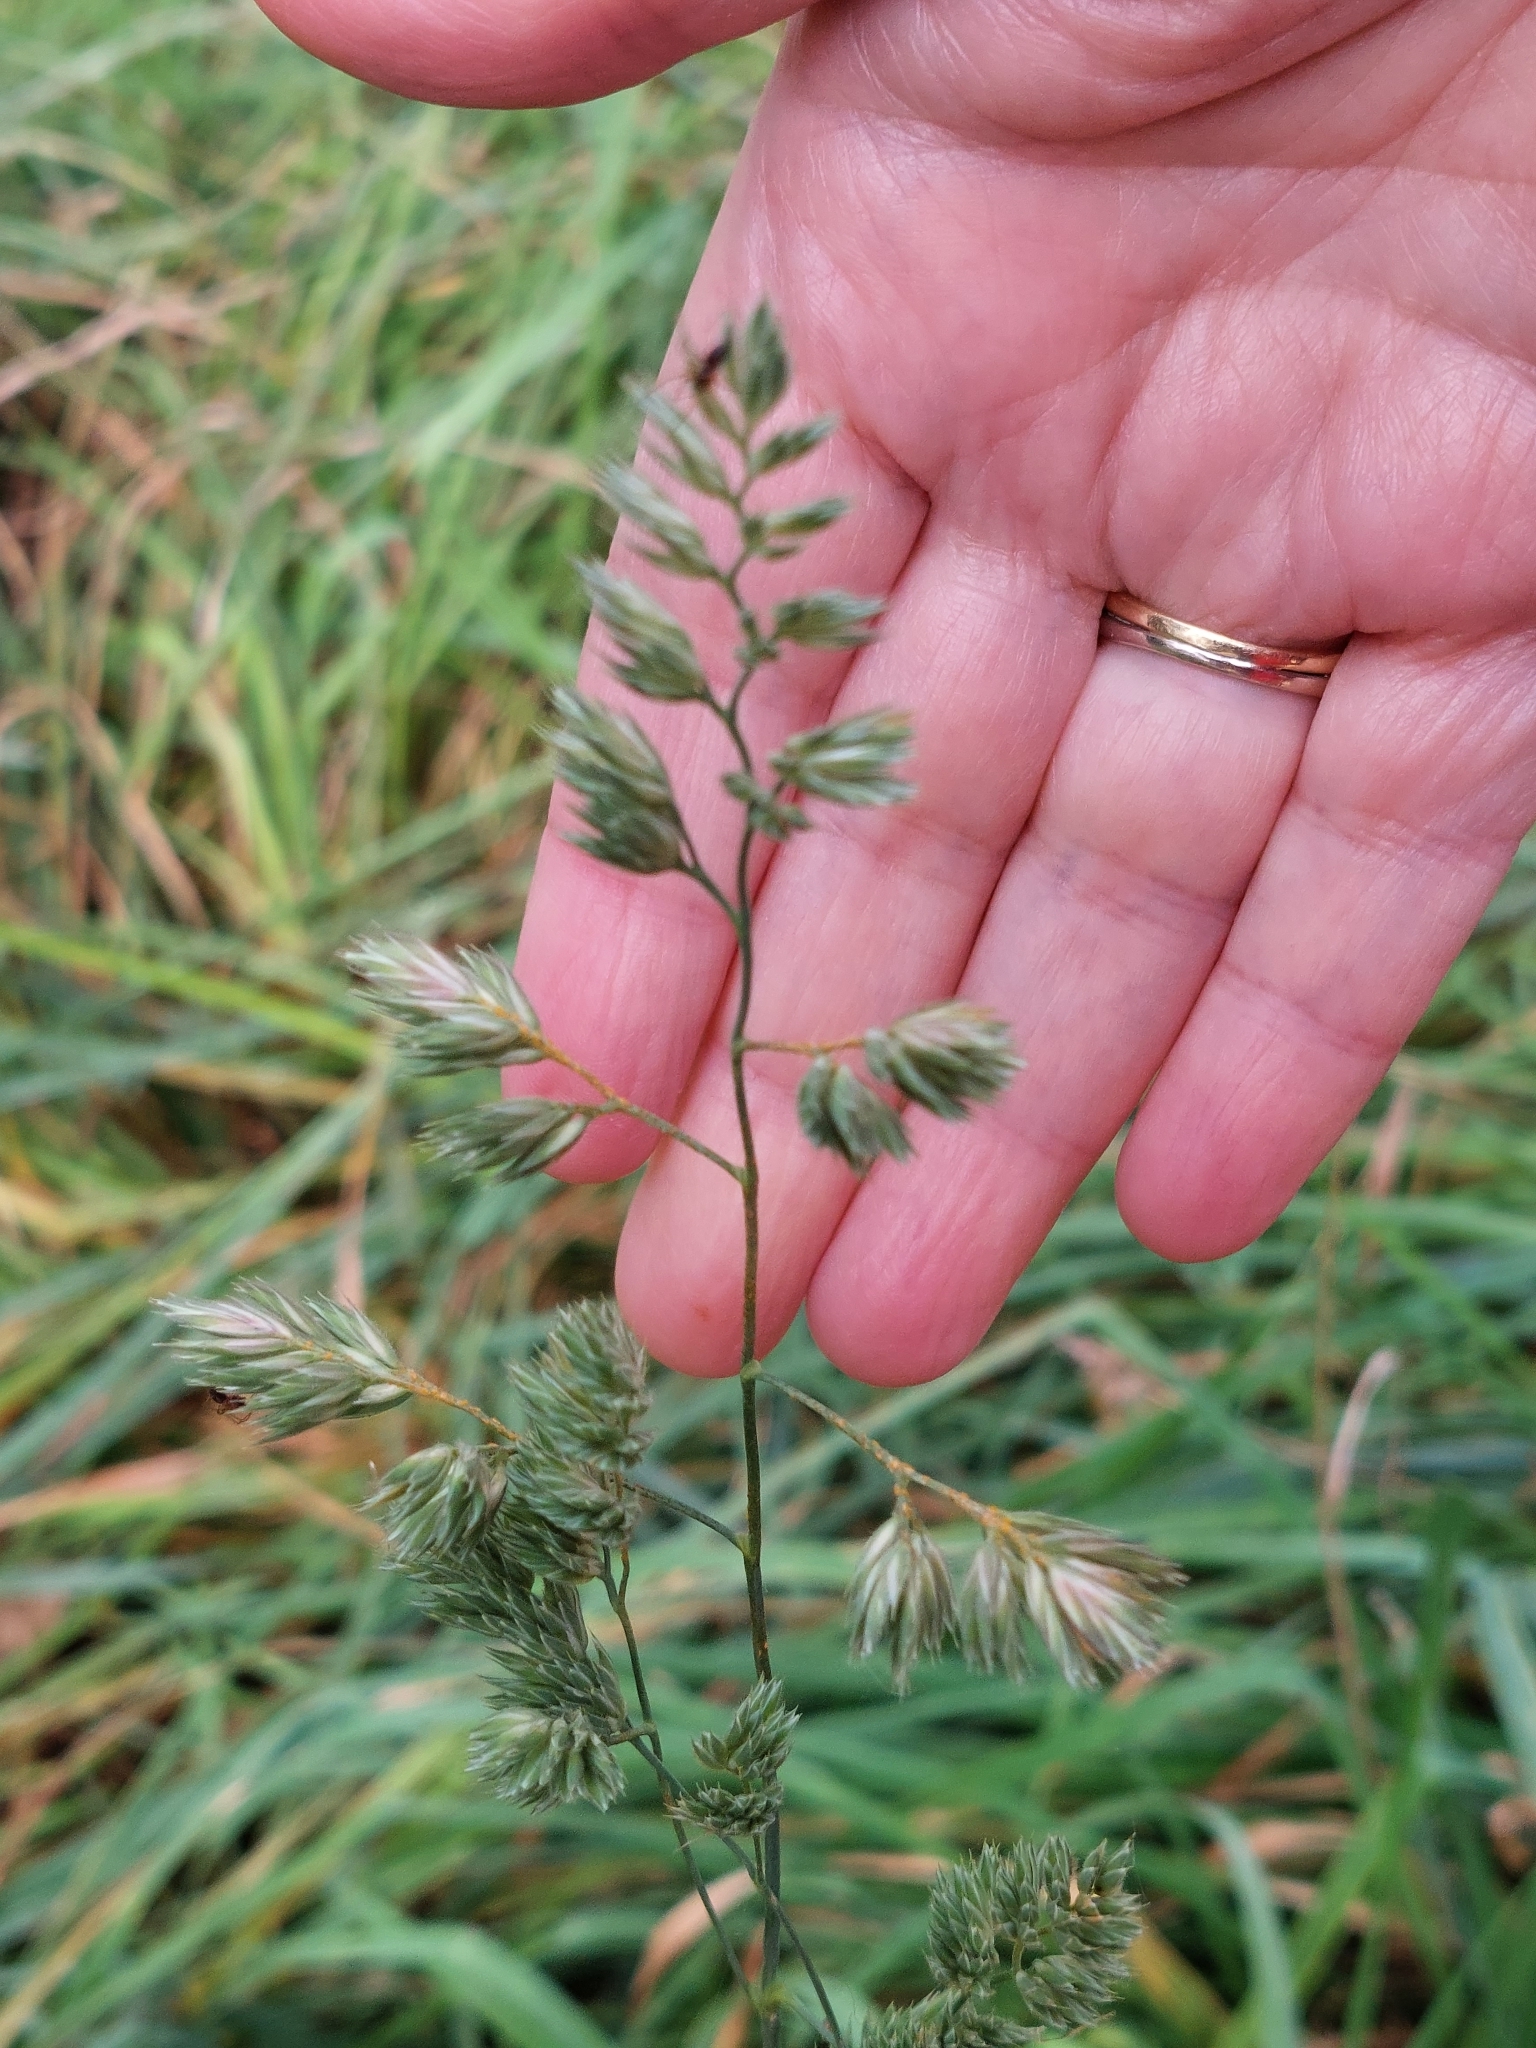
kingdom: Plantae
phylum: Tracheophyta
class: Liliopsida
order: Poales
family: Poaceae
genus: Dactylis
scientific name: Dactylis glomerata
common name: Orchardgrass
